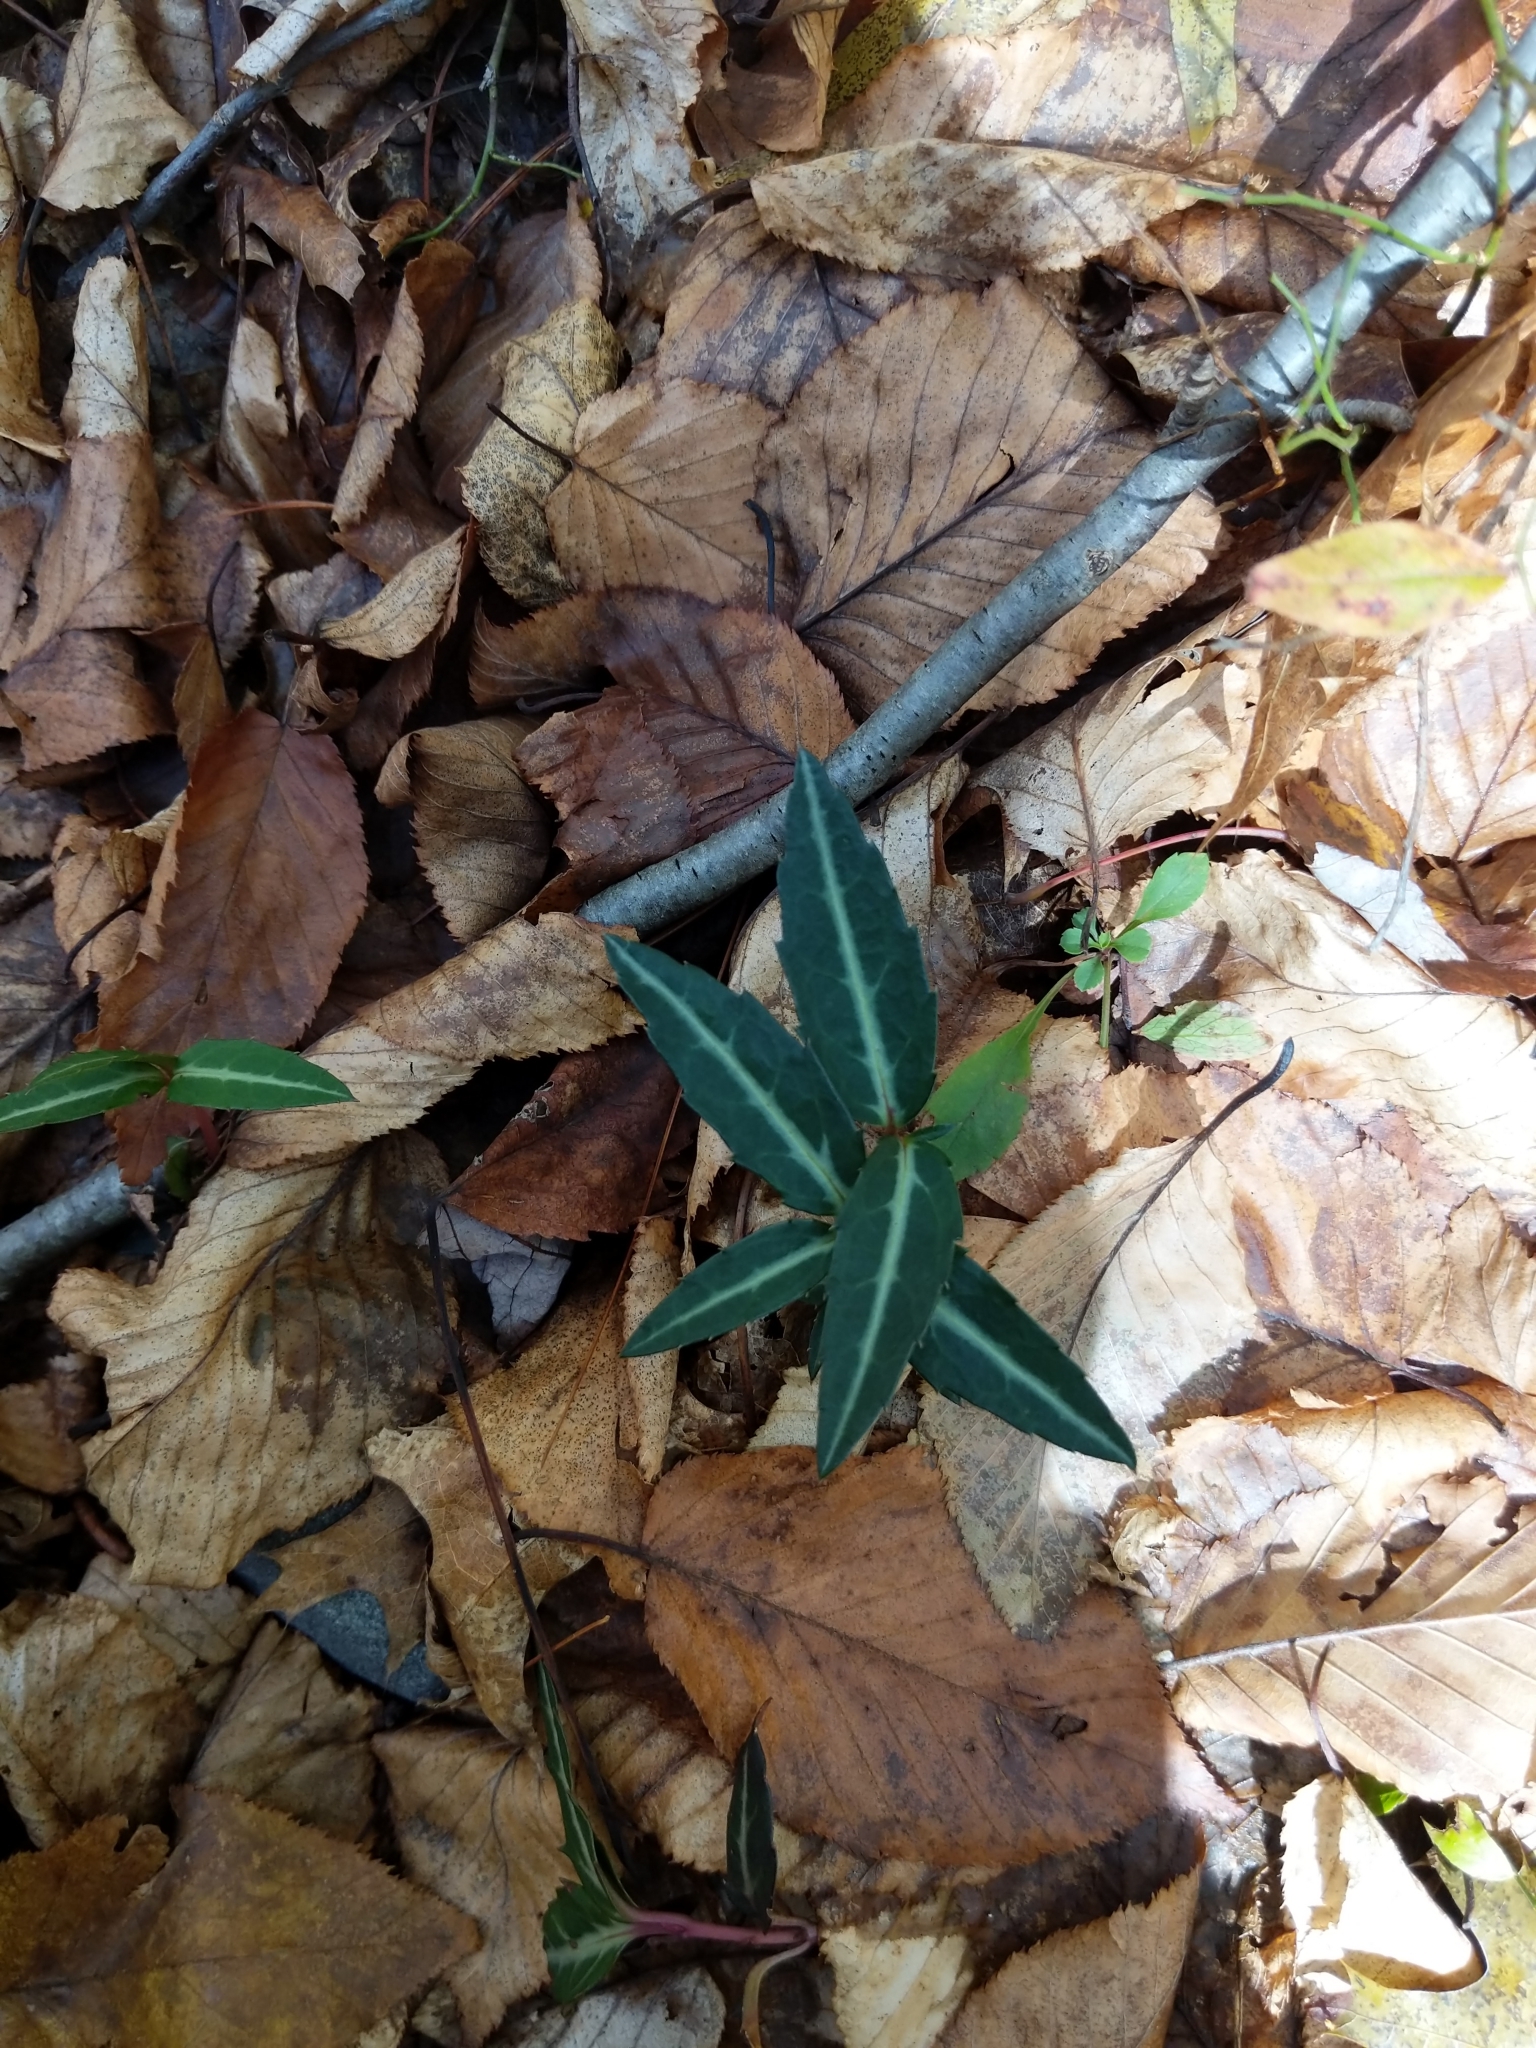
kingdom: Plantae
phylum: Tracheophyta
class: Magnoliopsida
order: Ericales
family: Ericaceae
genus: Chimaphila
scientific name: Chimaphila maculata
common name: Spotted pipsissewa
